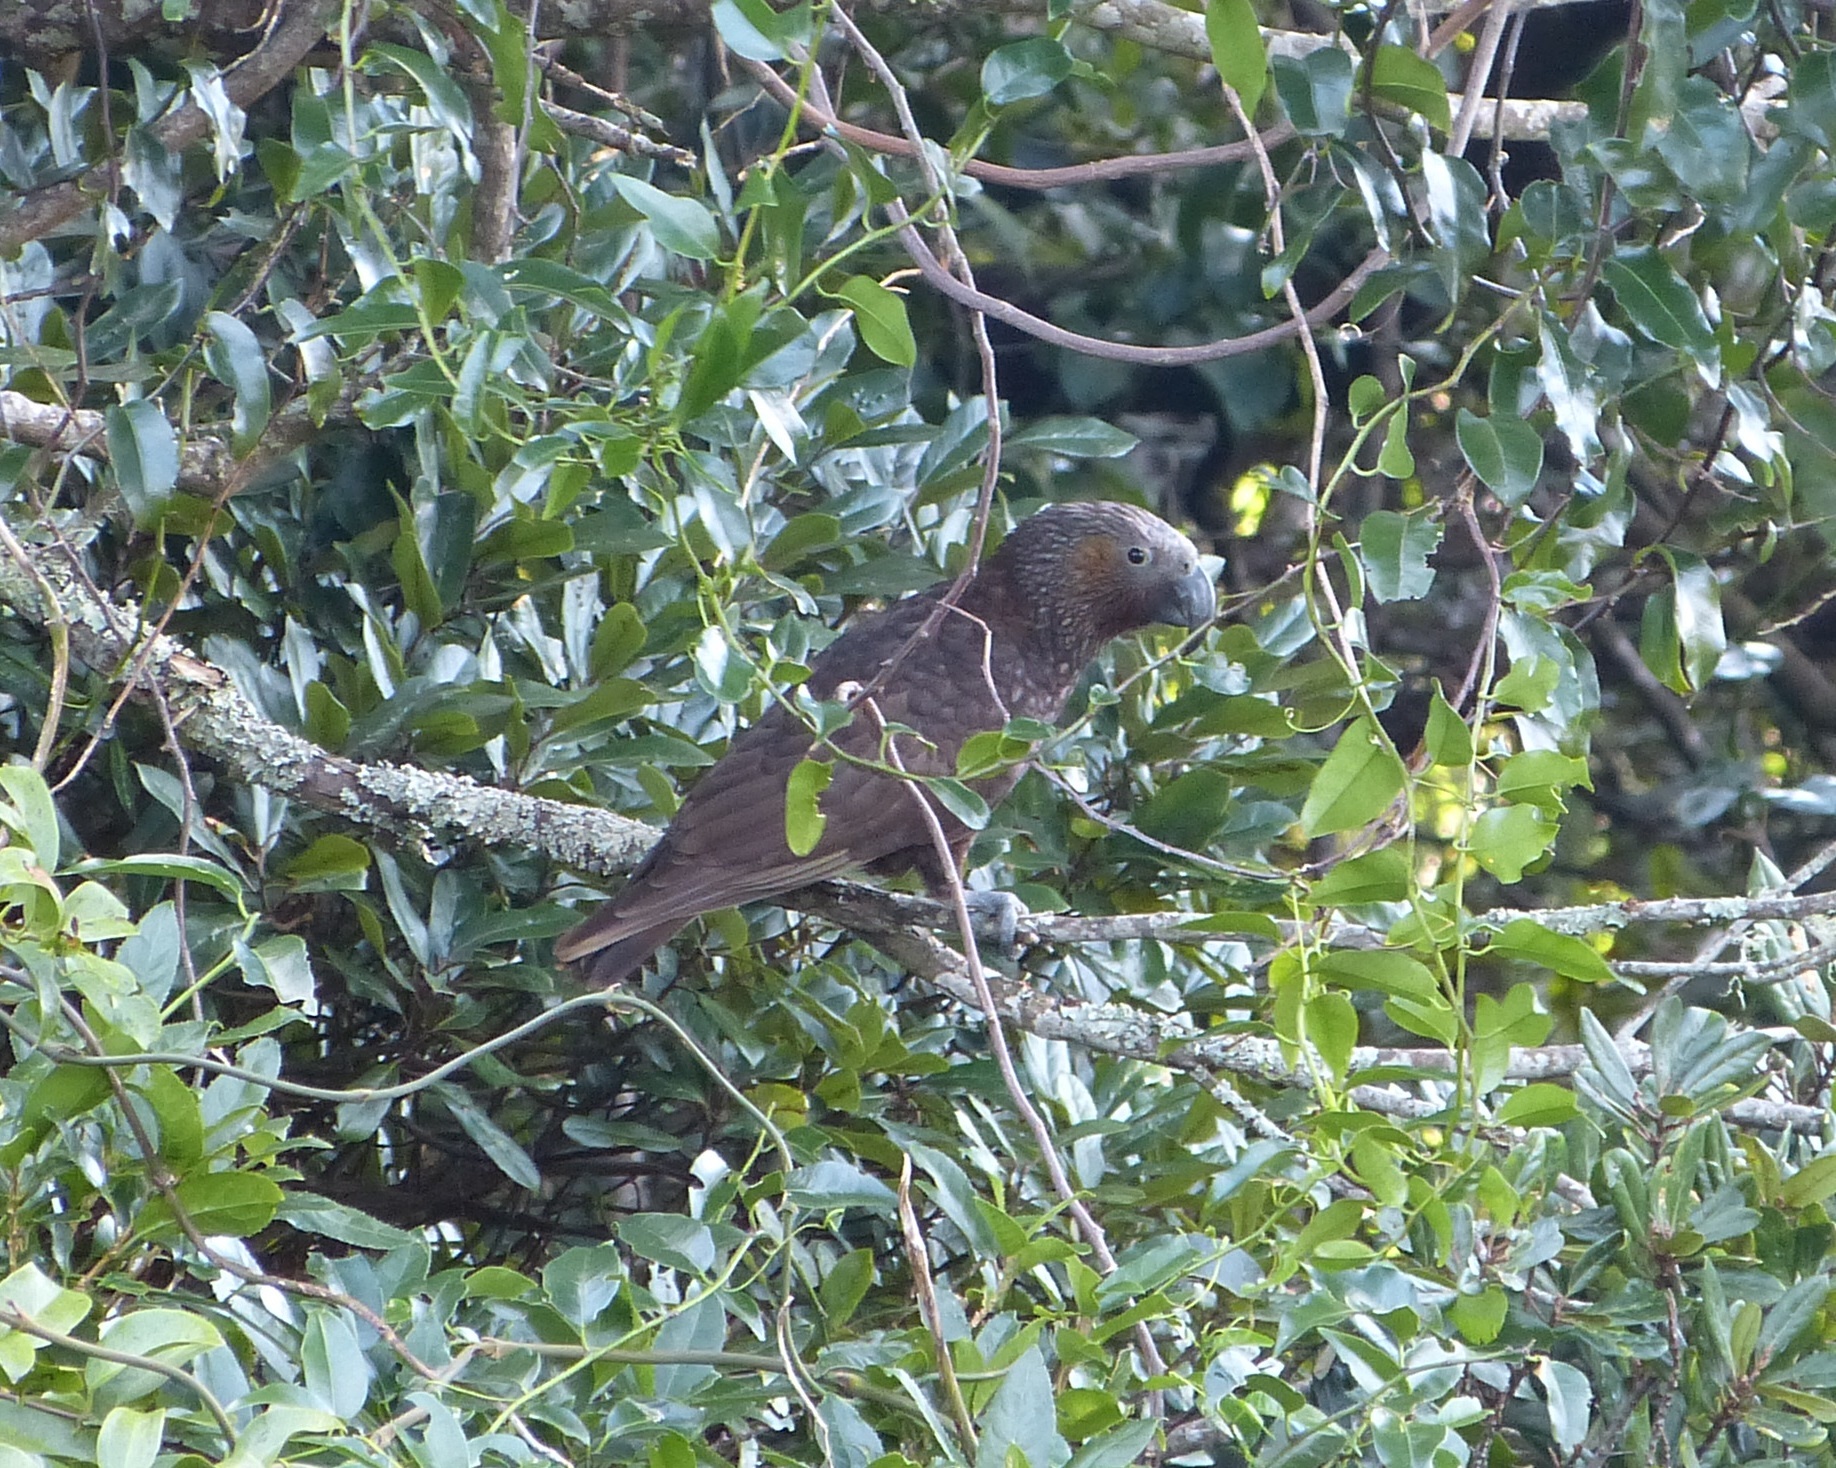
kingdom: Animalia
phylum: Chordata
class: Aves
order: Psittaciformes
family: Psittacidae
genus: Nestor
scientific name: Nestor meridionalis
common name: New zealand kaka
